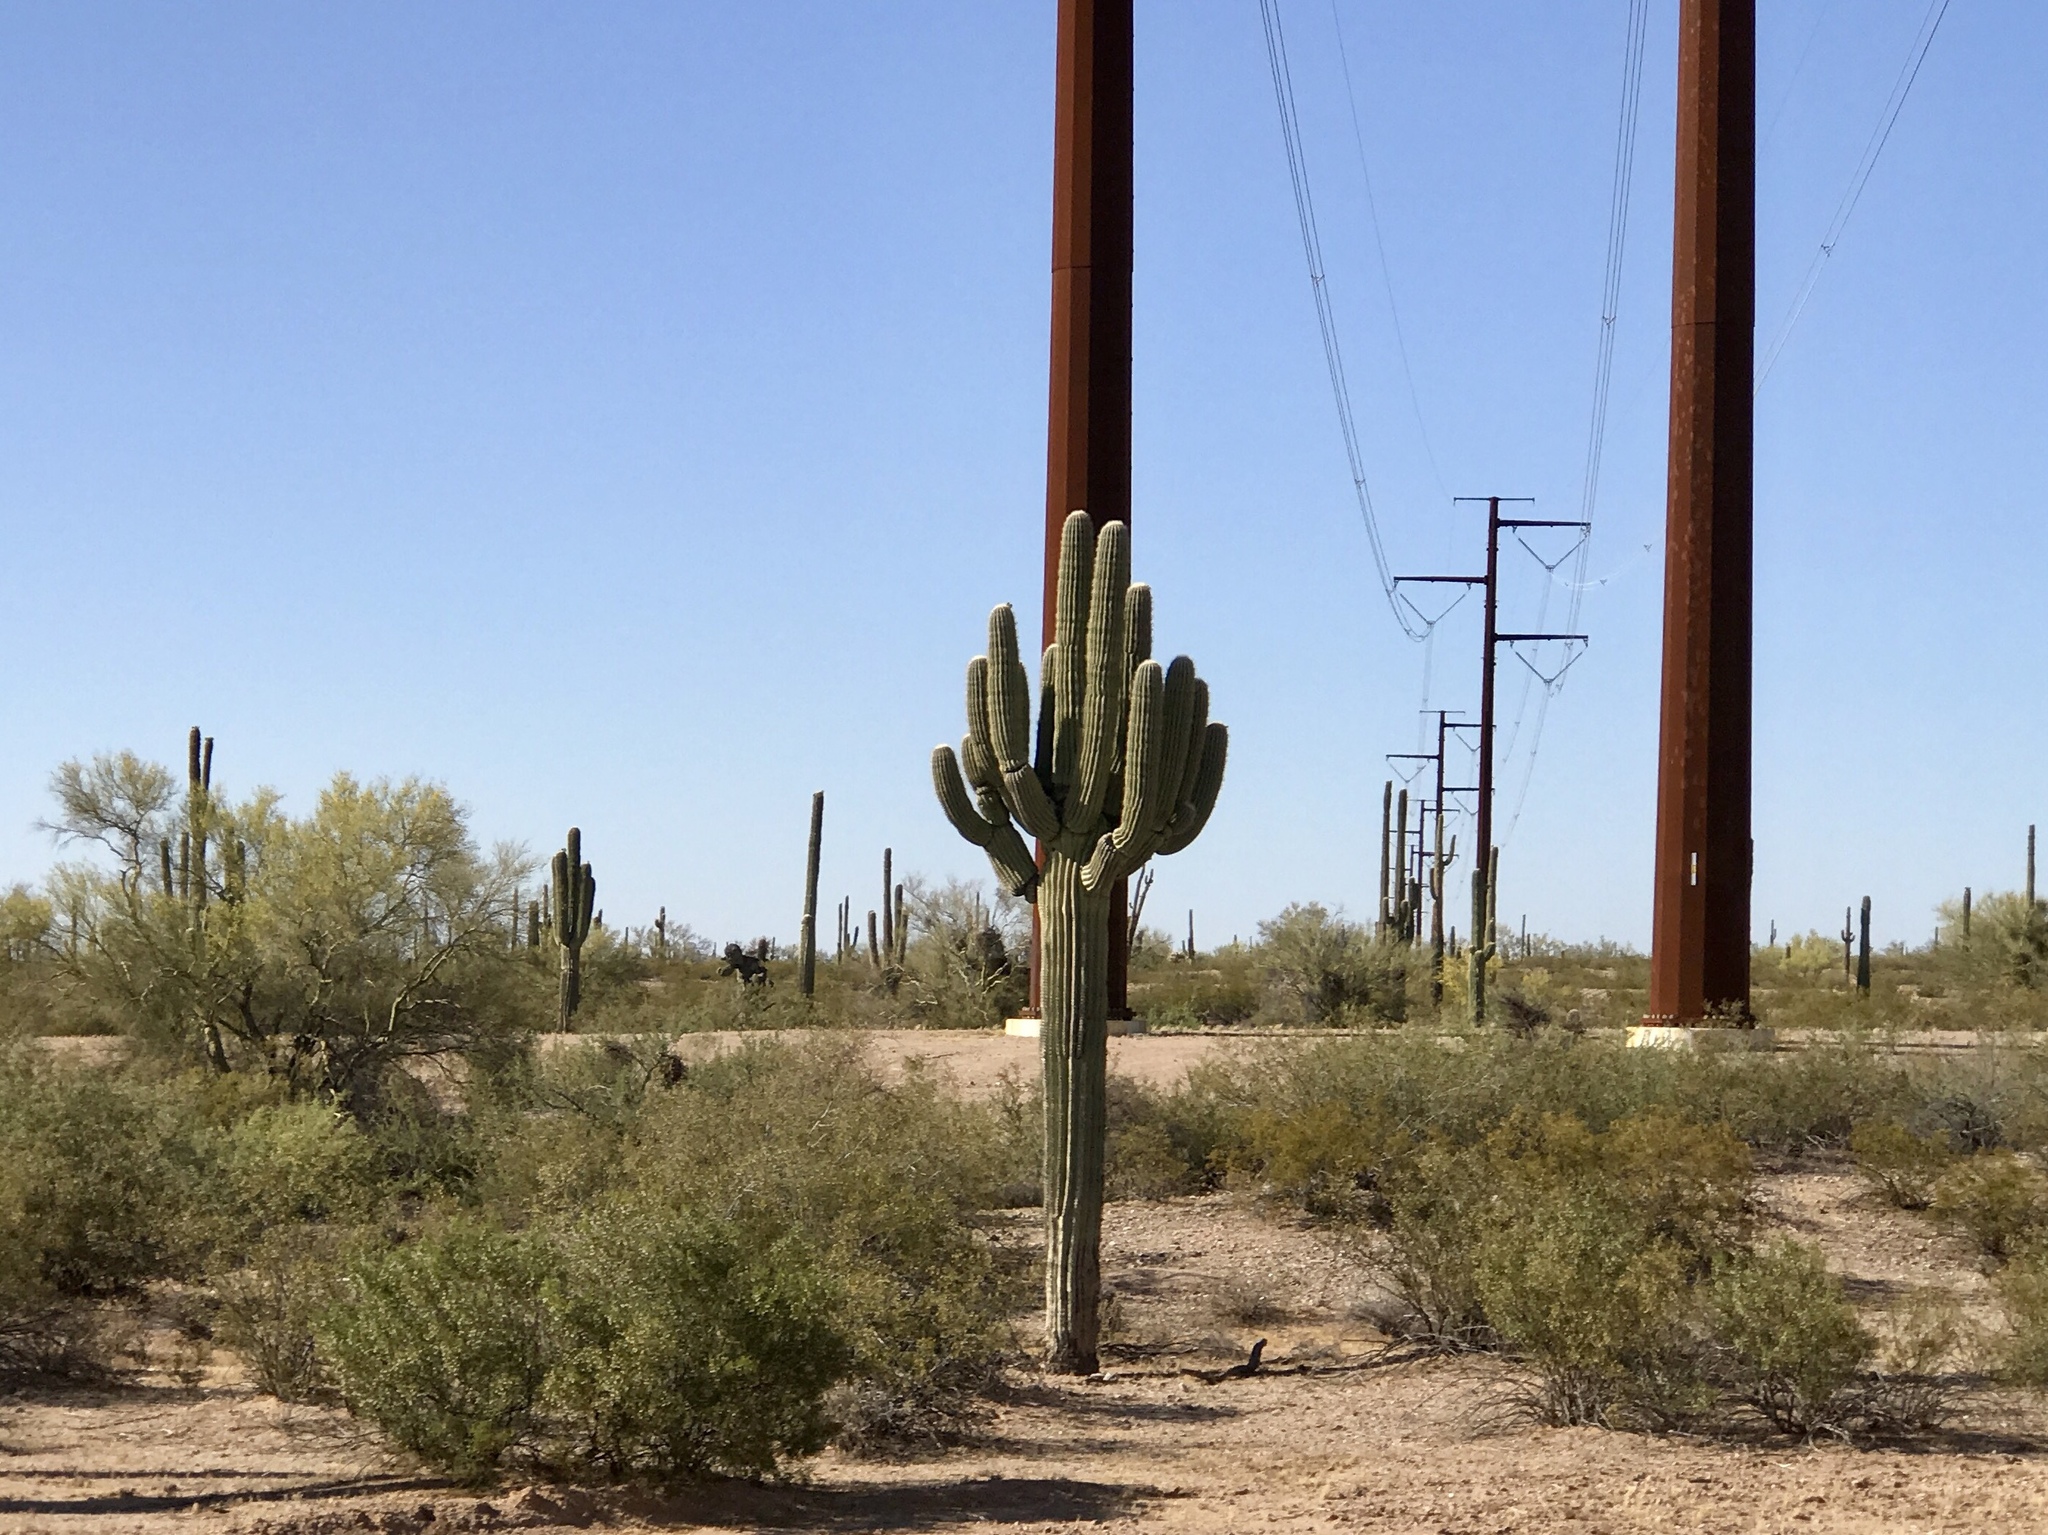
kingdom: Plantae
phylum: Tracheophyta
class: Magnoliopsida
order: Caryophyllales
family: Cactaceae
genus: Carnegiea
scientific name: Carnegiea gigantea
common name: Saguaro
